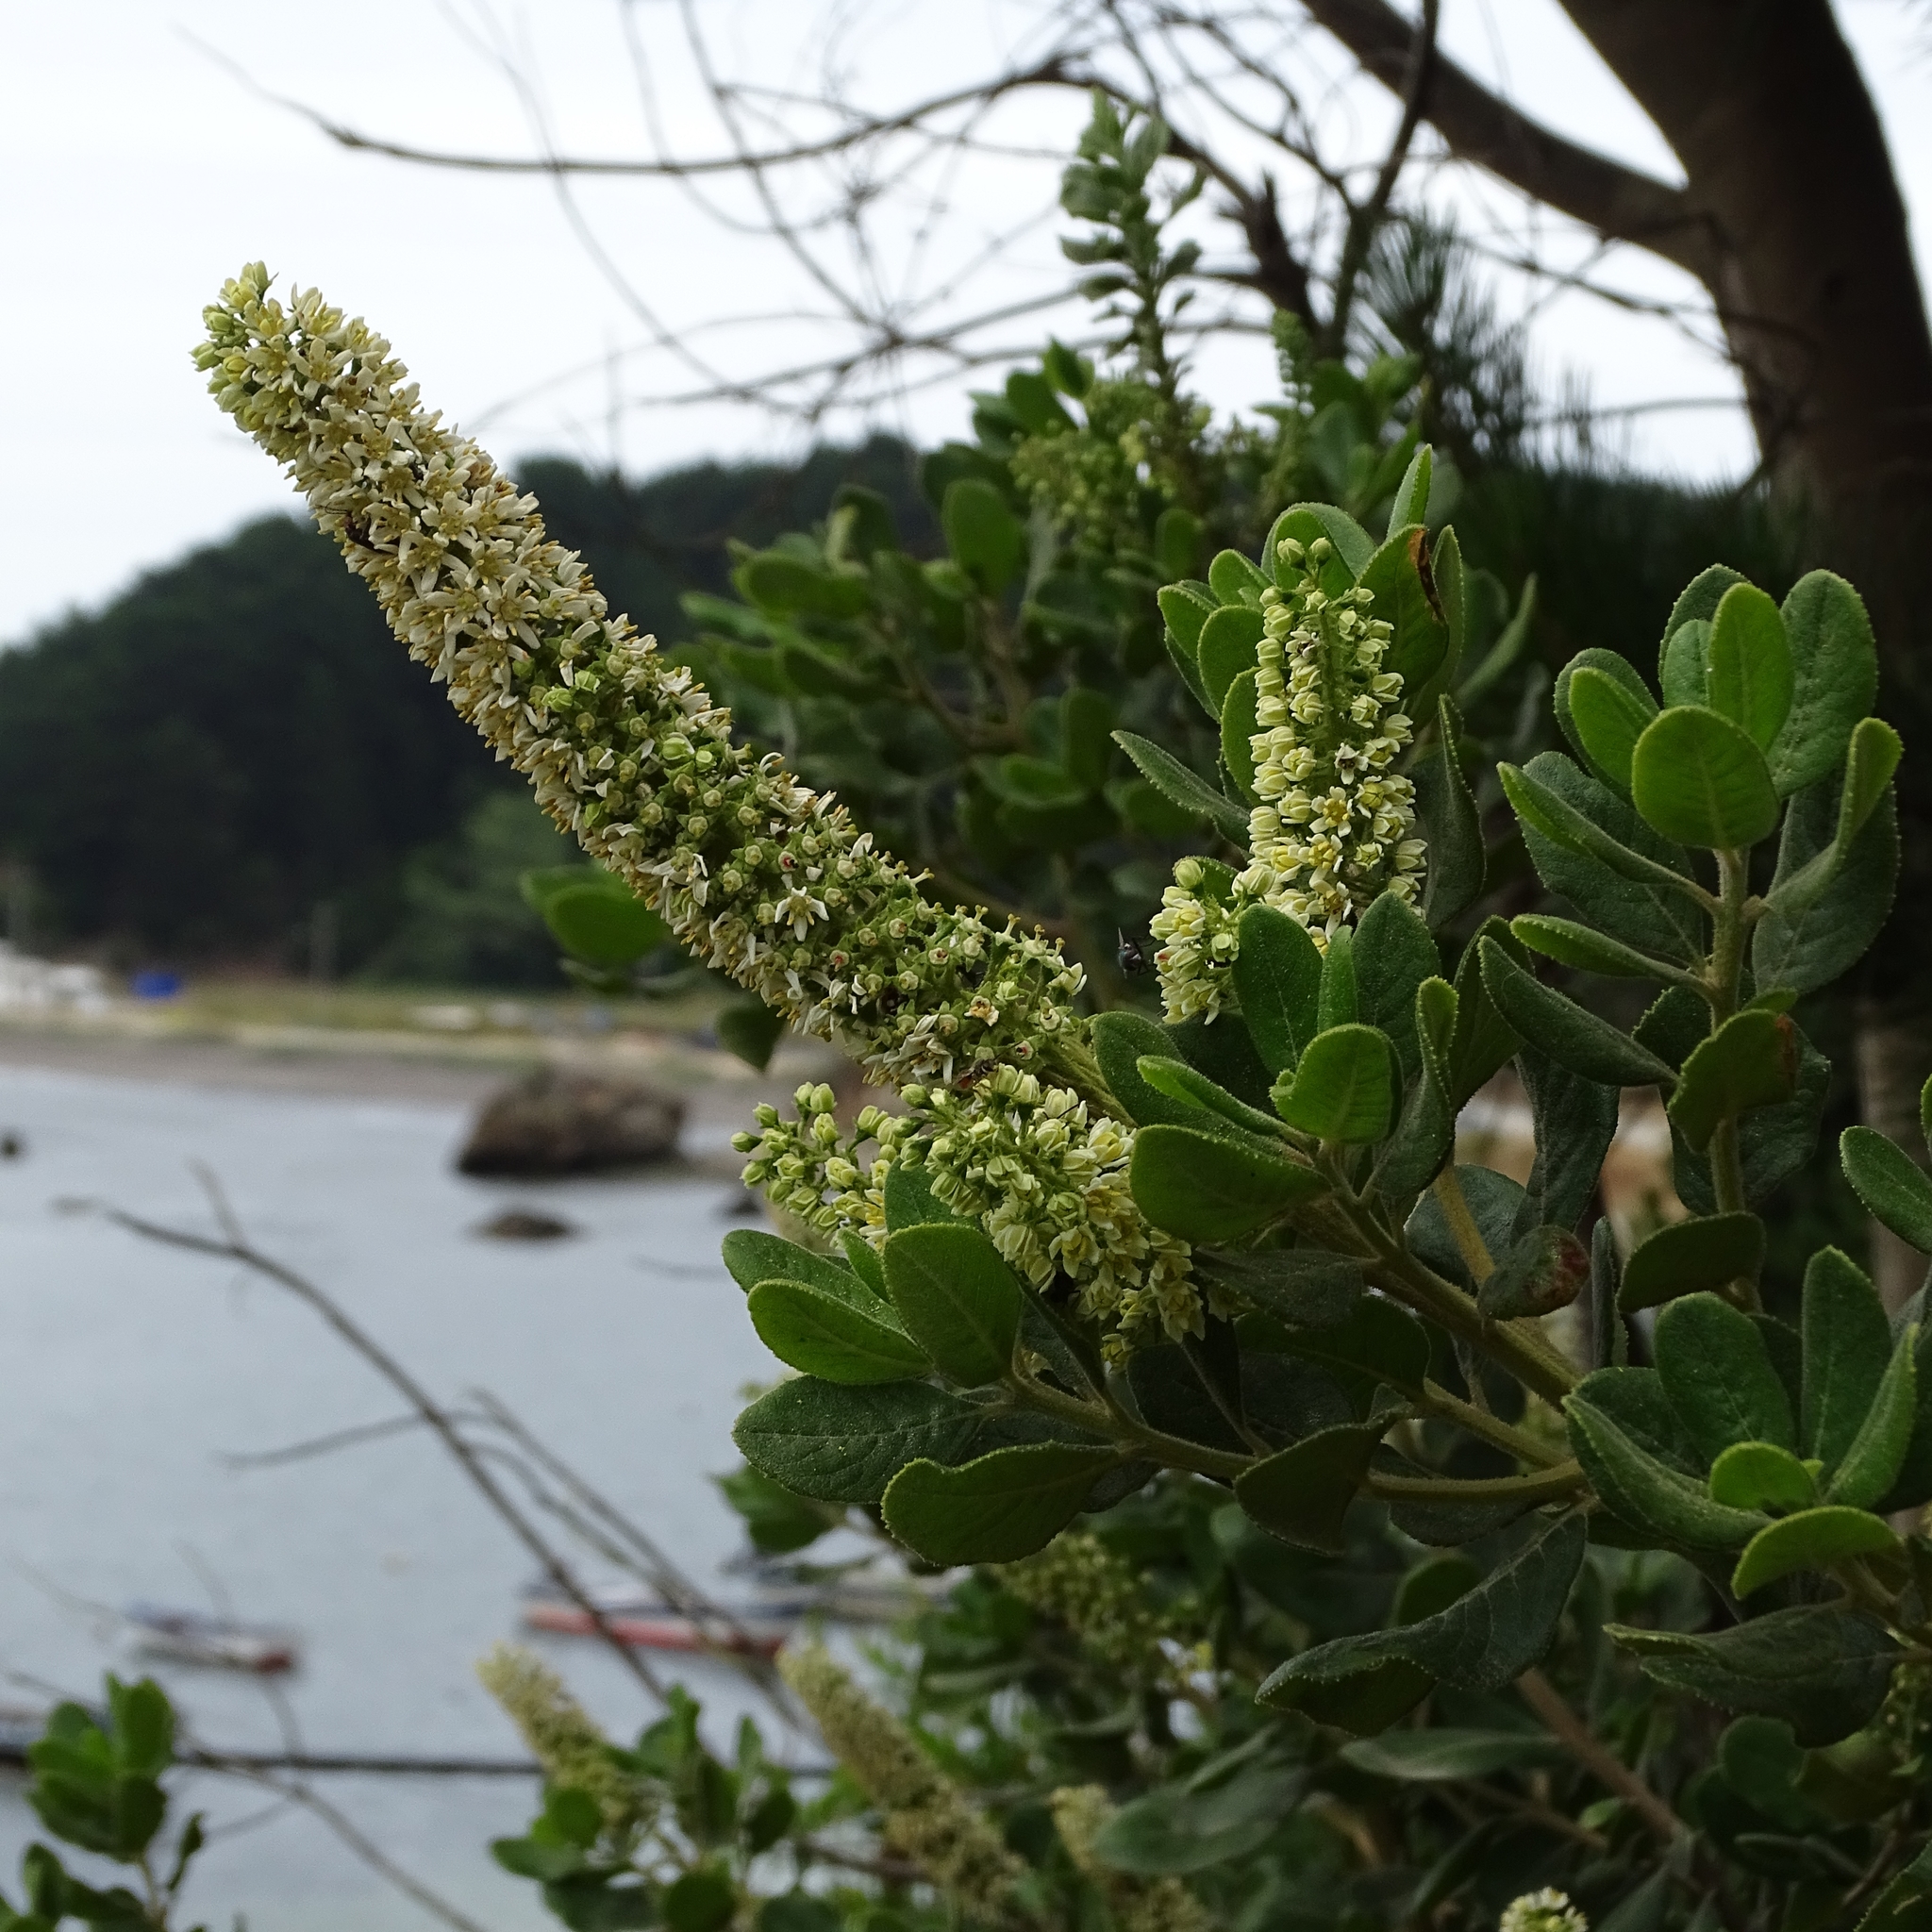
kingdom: Plantae
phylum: Tracheophyta
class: Magnoliopsida
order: Escalloniales
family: Escalloniaceae
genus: Escallonia
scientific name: Escallonia pulverulenta
